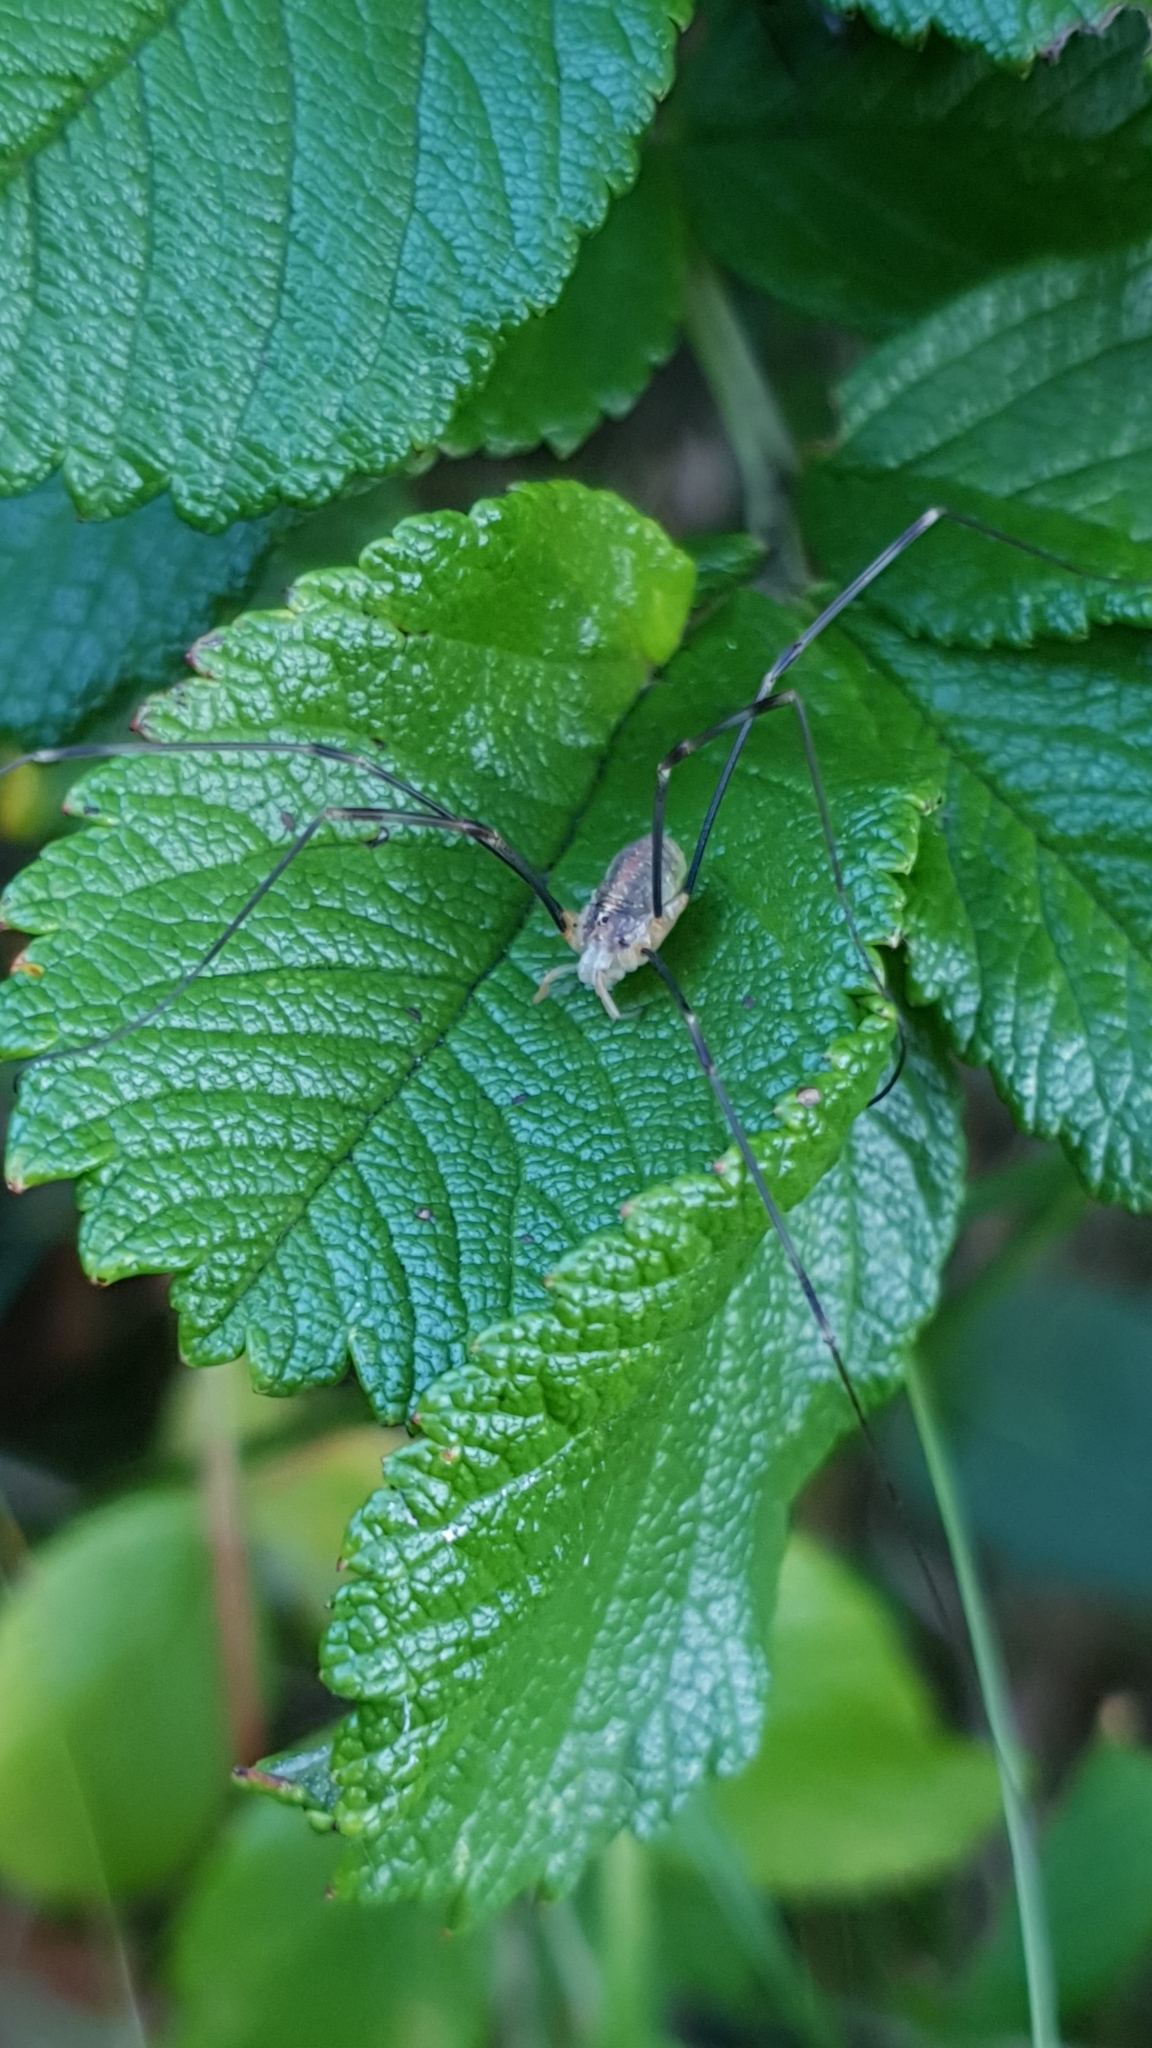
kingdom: Animalia
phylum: Arthropoda
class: Arachnida
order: Opiliones
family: Phalangiidae
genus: Opilio
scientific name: Opilio canestrinii
